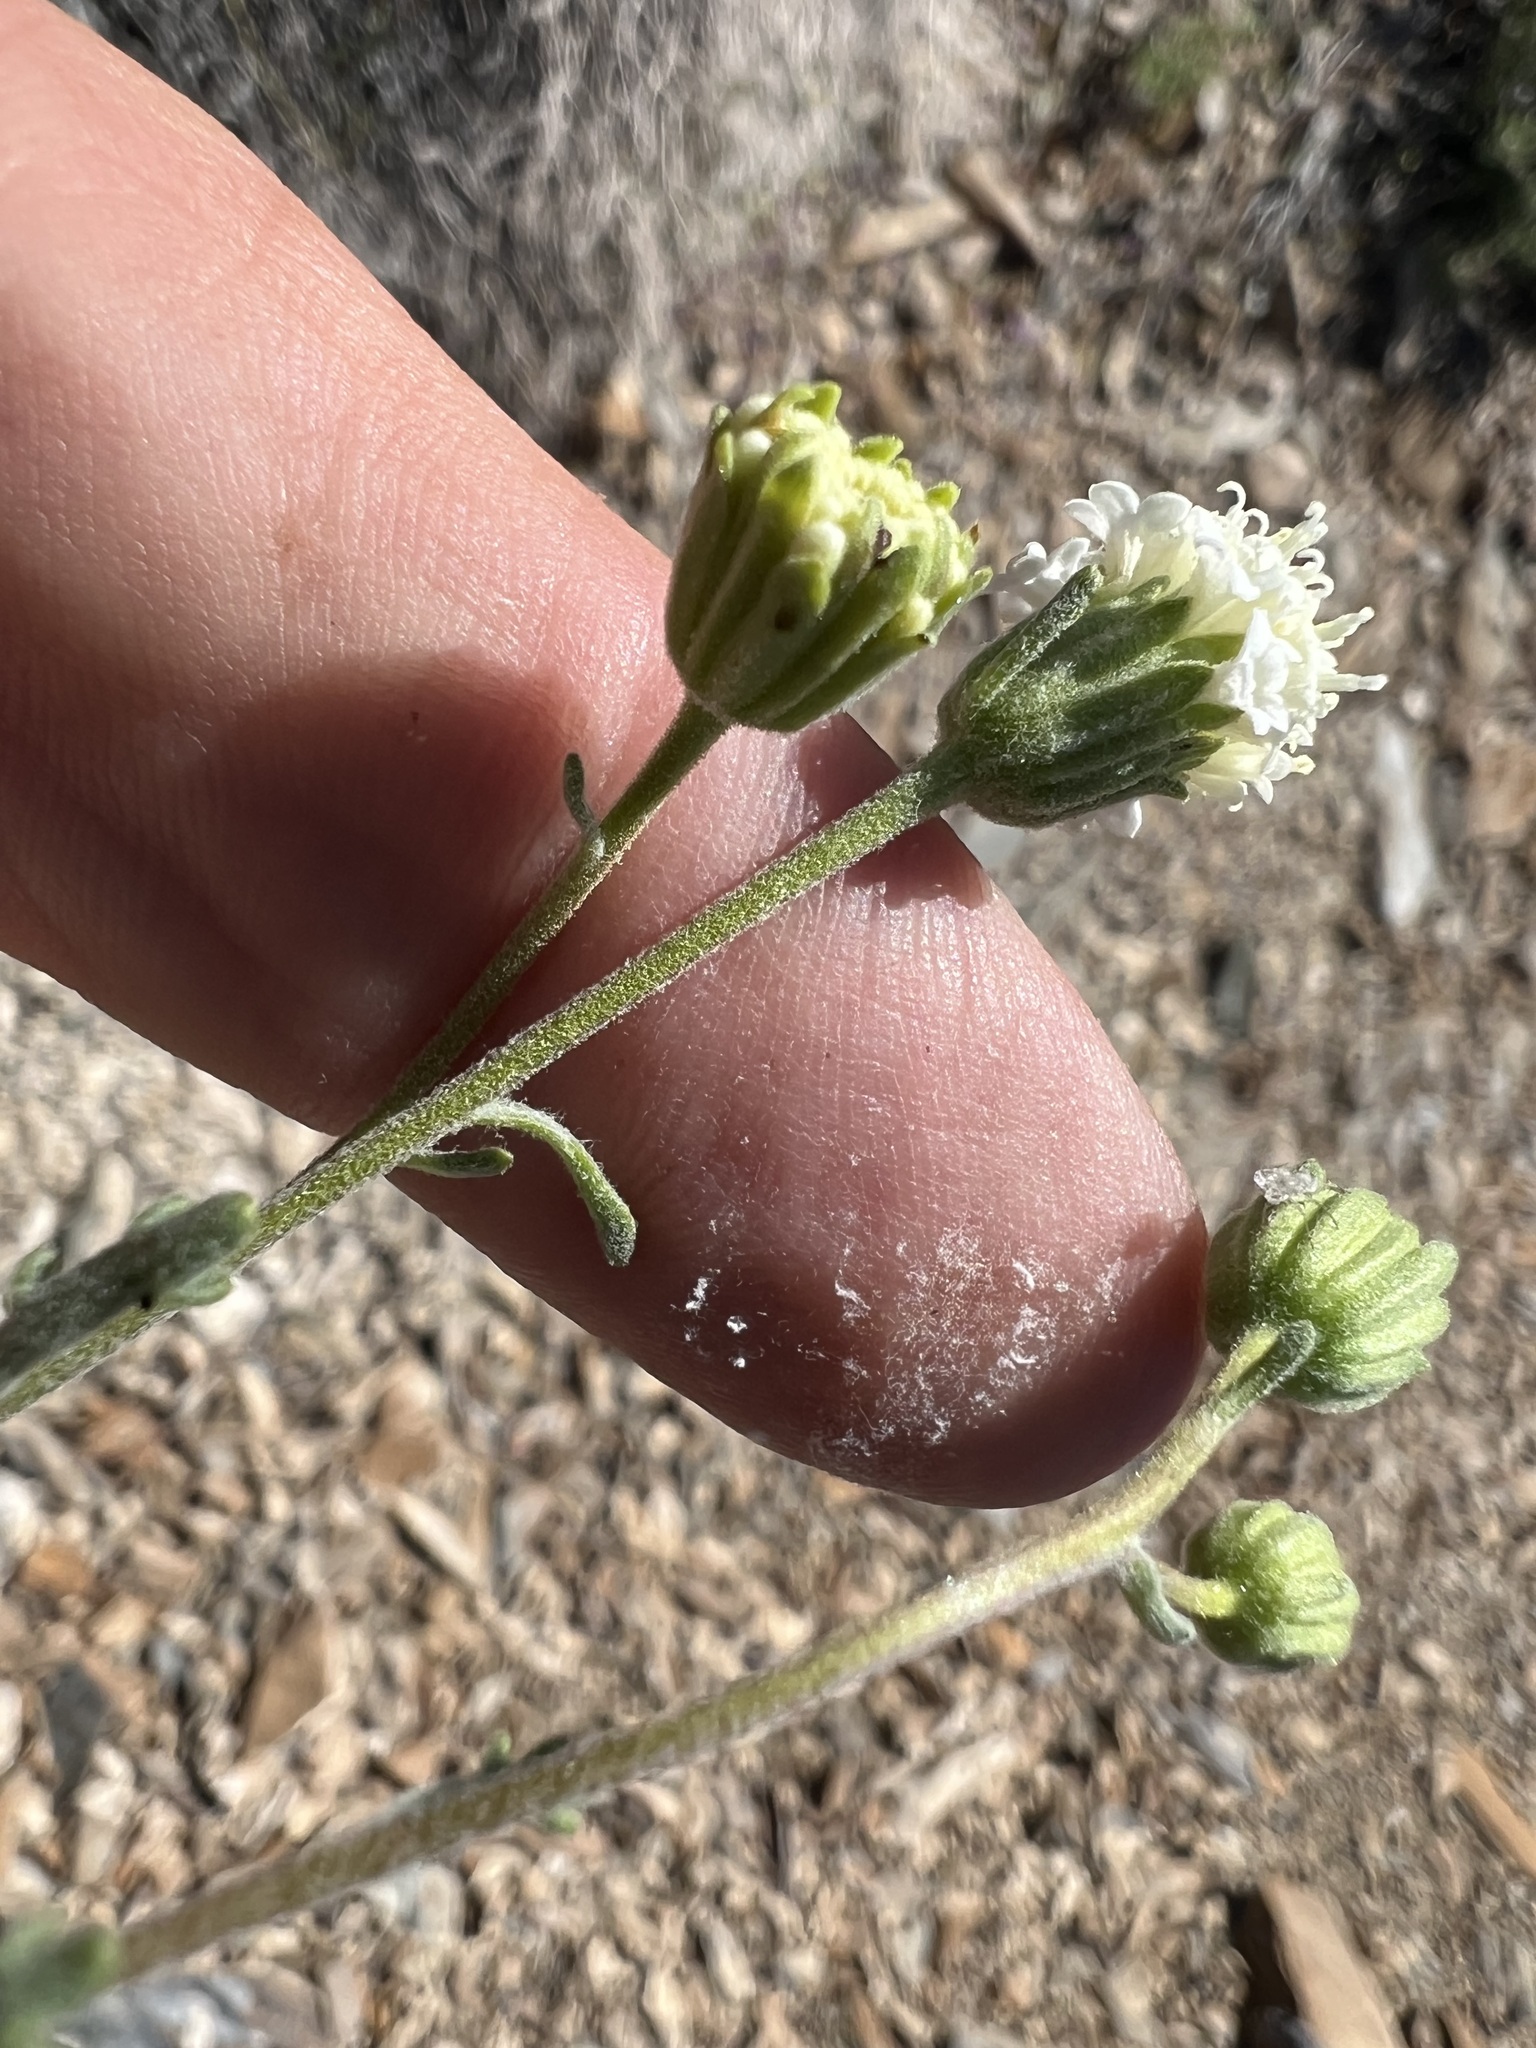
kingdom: Plantae
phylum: Tracheophyta
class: Magnoliopsida
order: Asterales
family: Asteraceae
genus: Chaenactis
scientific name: Chaenactis stevioides
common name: Desert pincushion
